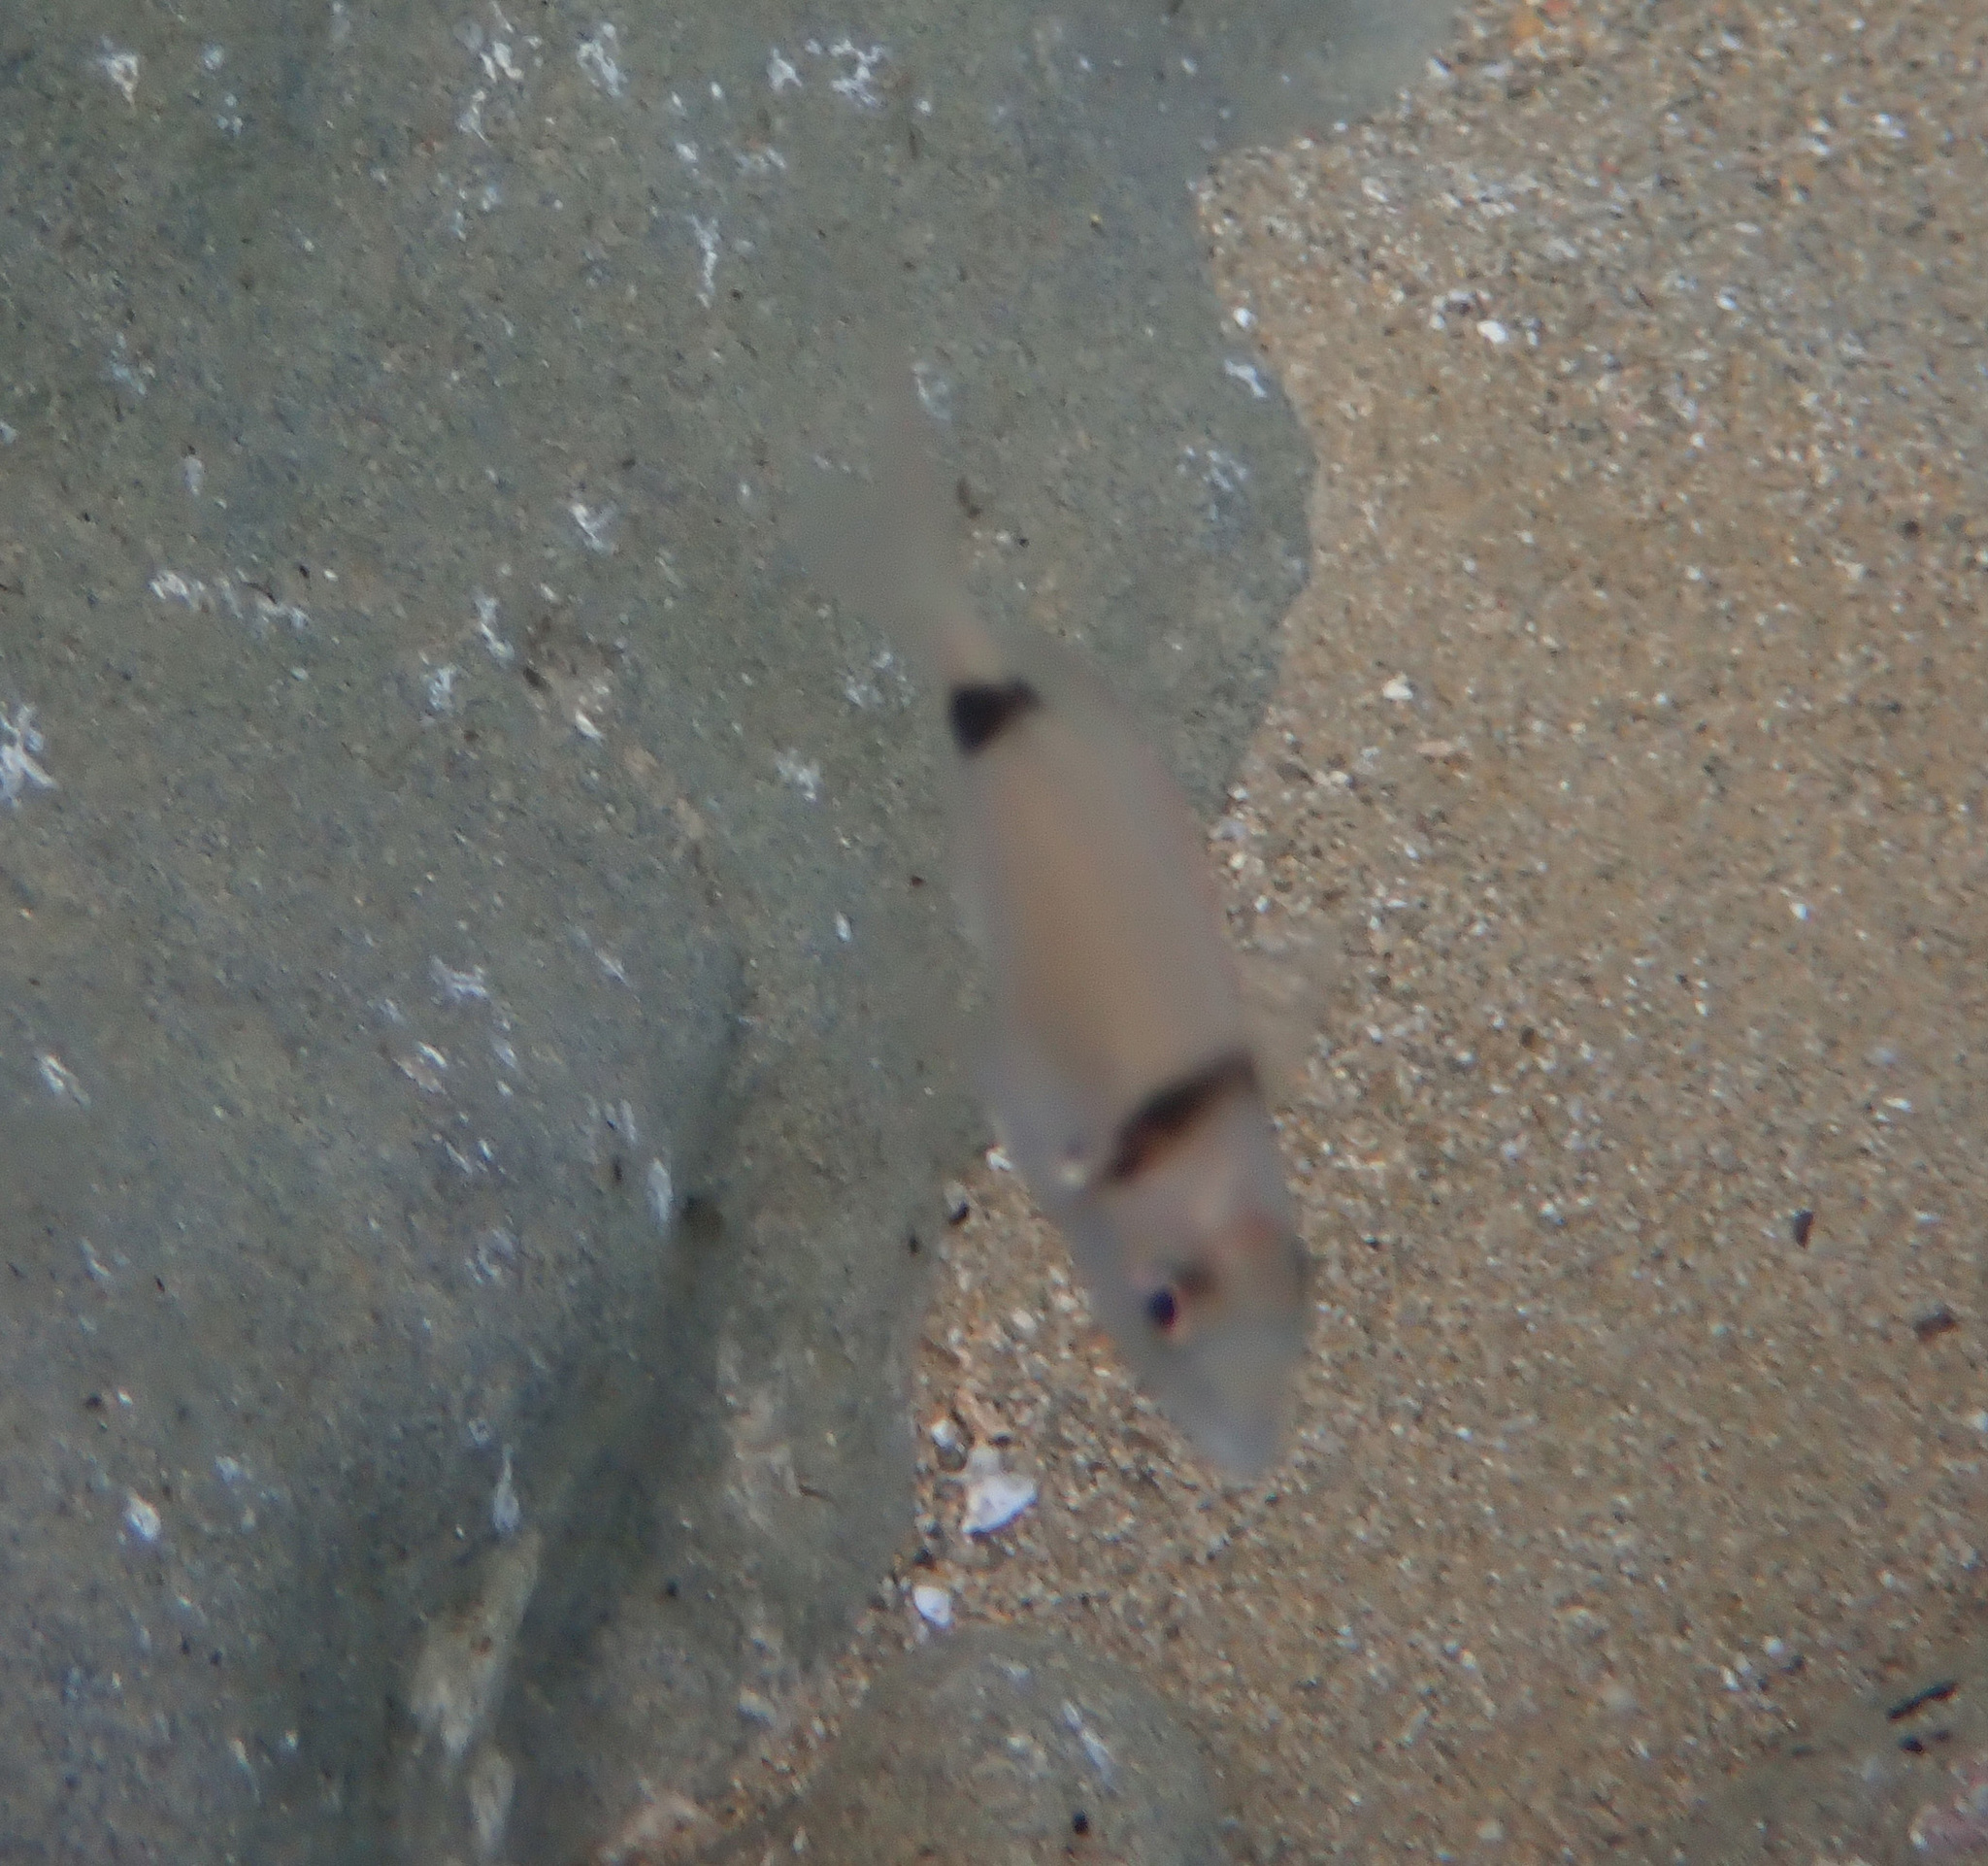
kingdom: Animalia
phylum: Chordata
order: Perciformes
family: Sparidae
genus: Diplodus
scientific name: Diplodus vulgaris
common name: Common two-banded seabream
